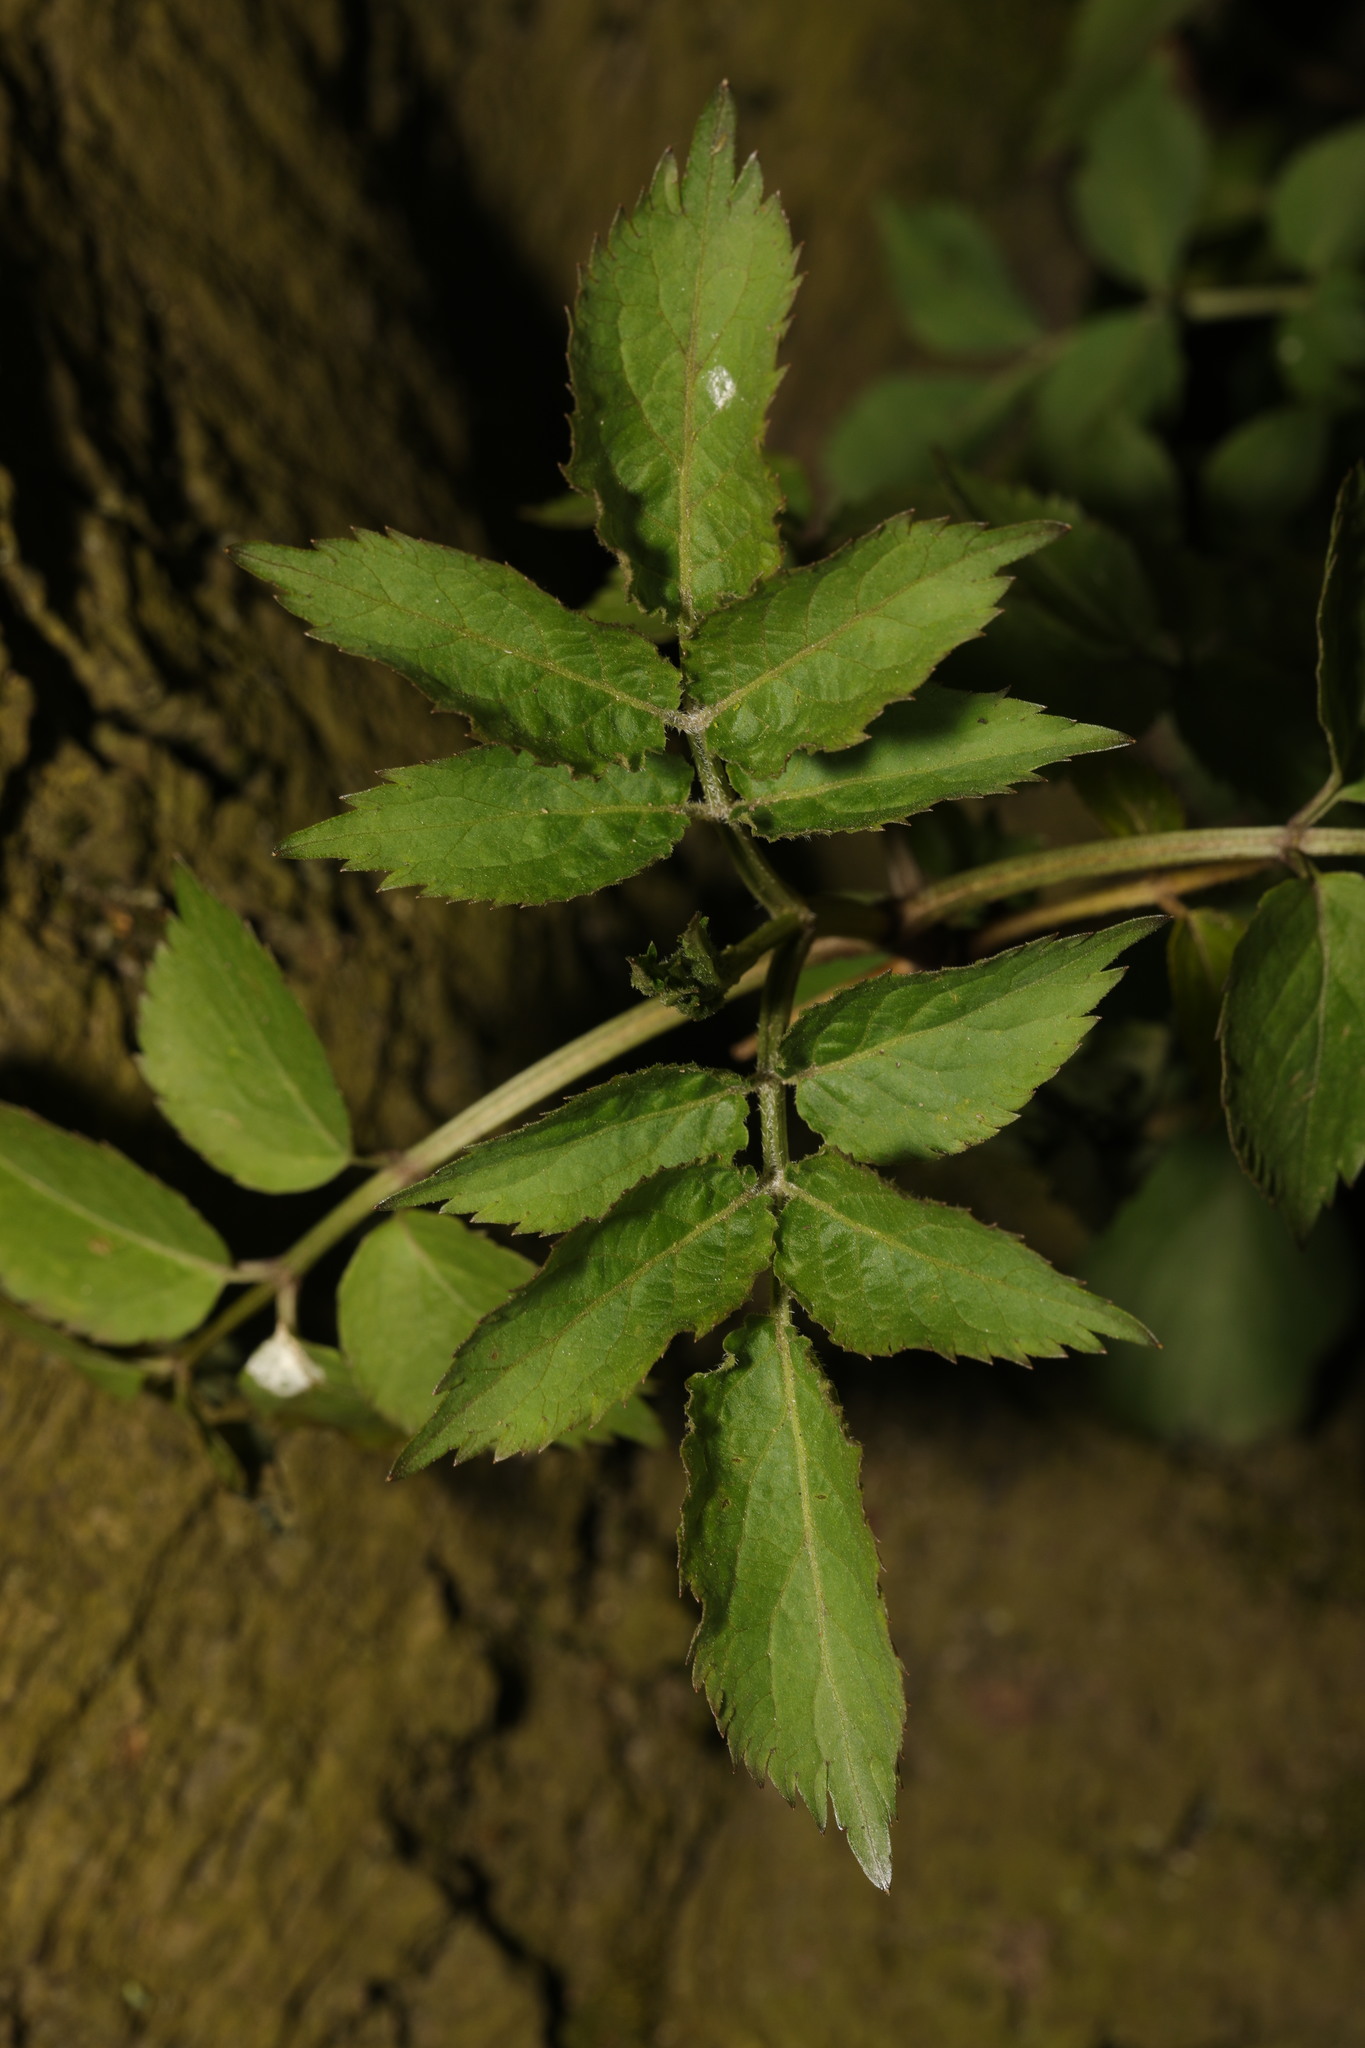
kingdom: Plantae
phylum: Tracheophyta
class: Magnoliopsida
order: Dipsacales
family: Viburnaceae
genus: Sambucus
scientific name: Sambucus nigra
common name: Elder
